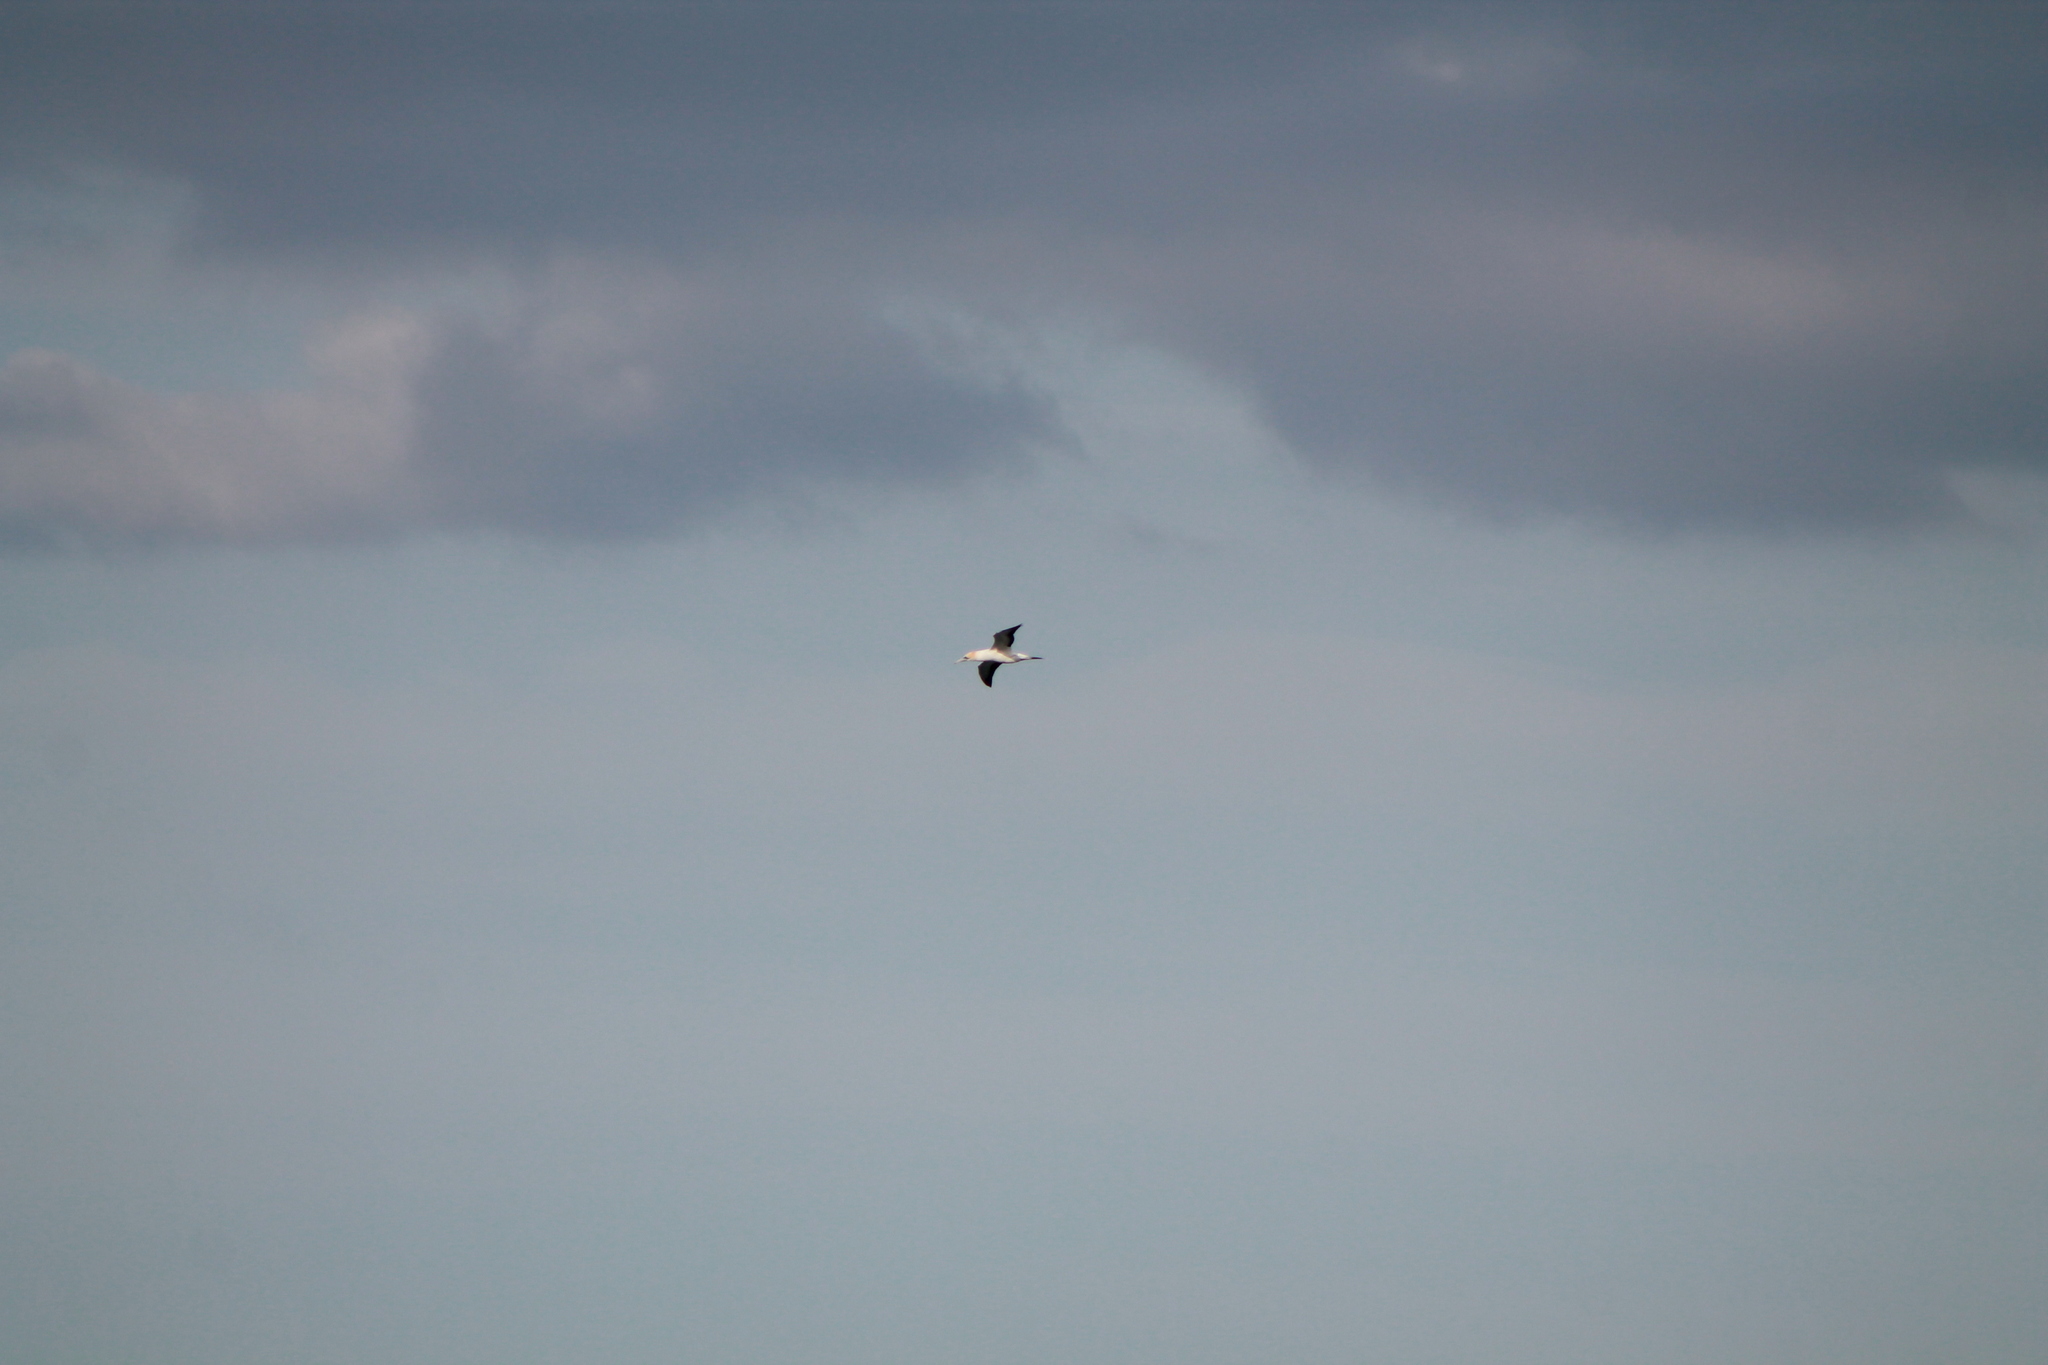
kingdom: Animalia
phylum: Chordata
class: Aves
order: Suliformes
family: Sulidae
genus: Morus
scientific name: Morus serrator
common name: Australasian gannet
